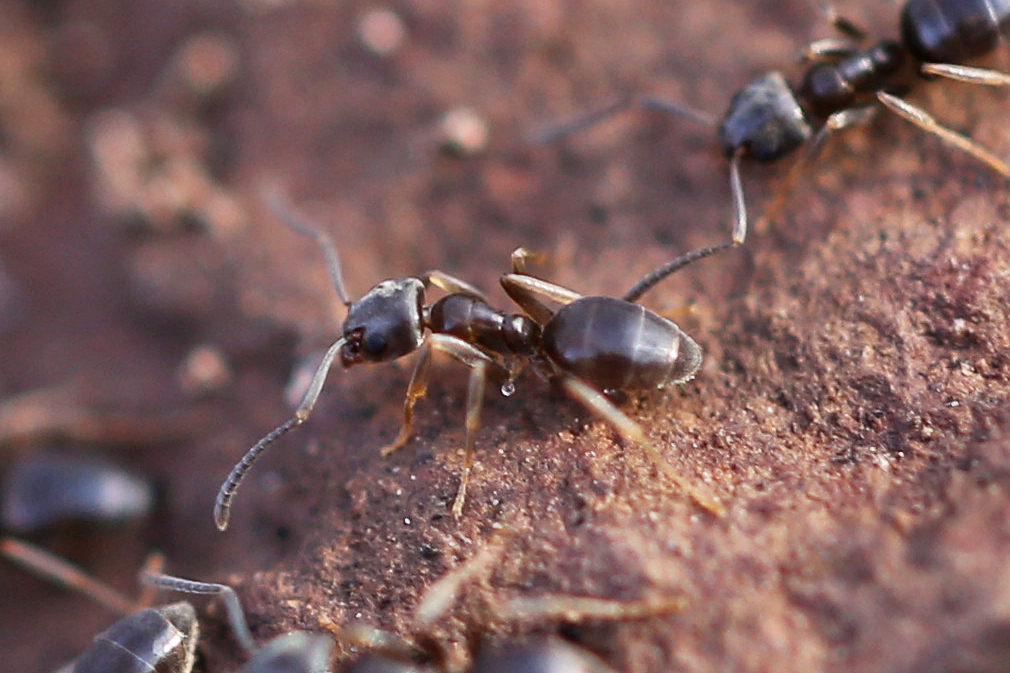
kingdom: Animalia
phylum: Arthropoda
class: Insecta
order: Hymenoptera
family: Formicidae
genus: Tapinoma
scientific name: Tapinoma sessile
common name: Odorous house ant
